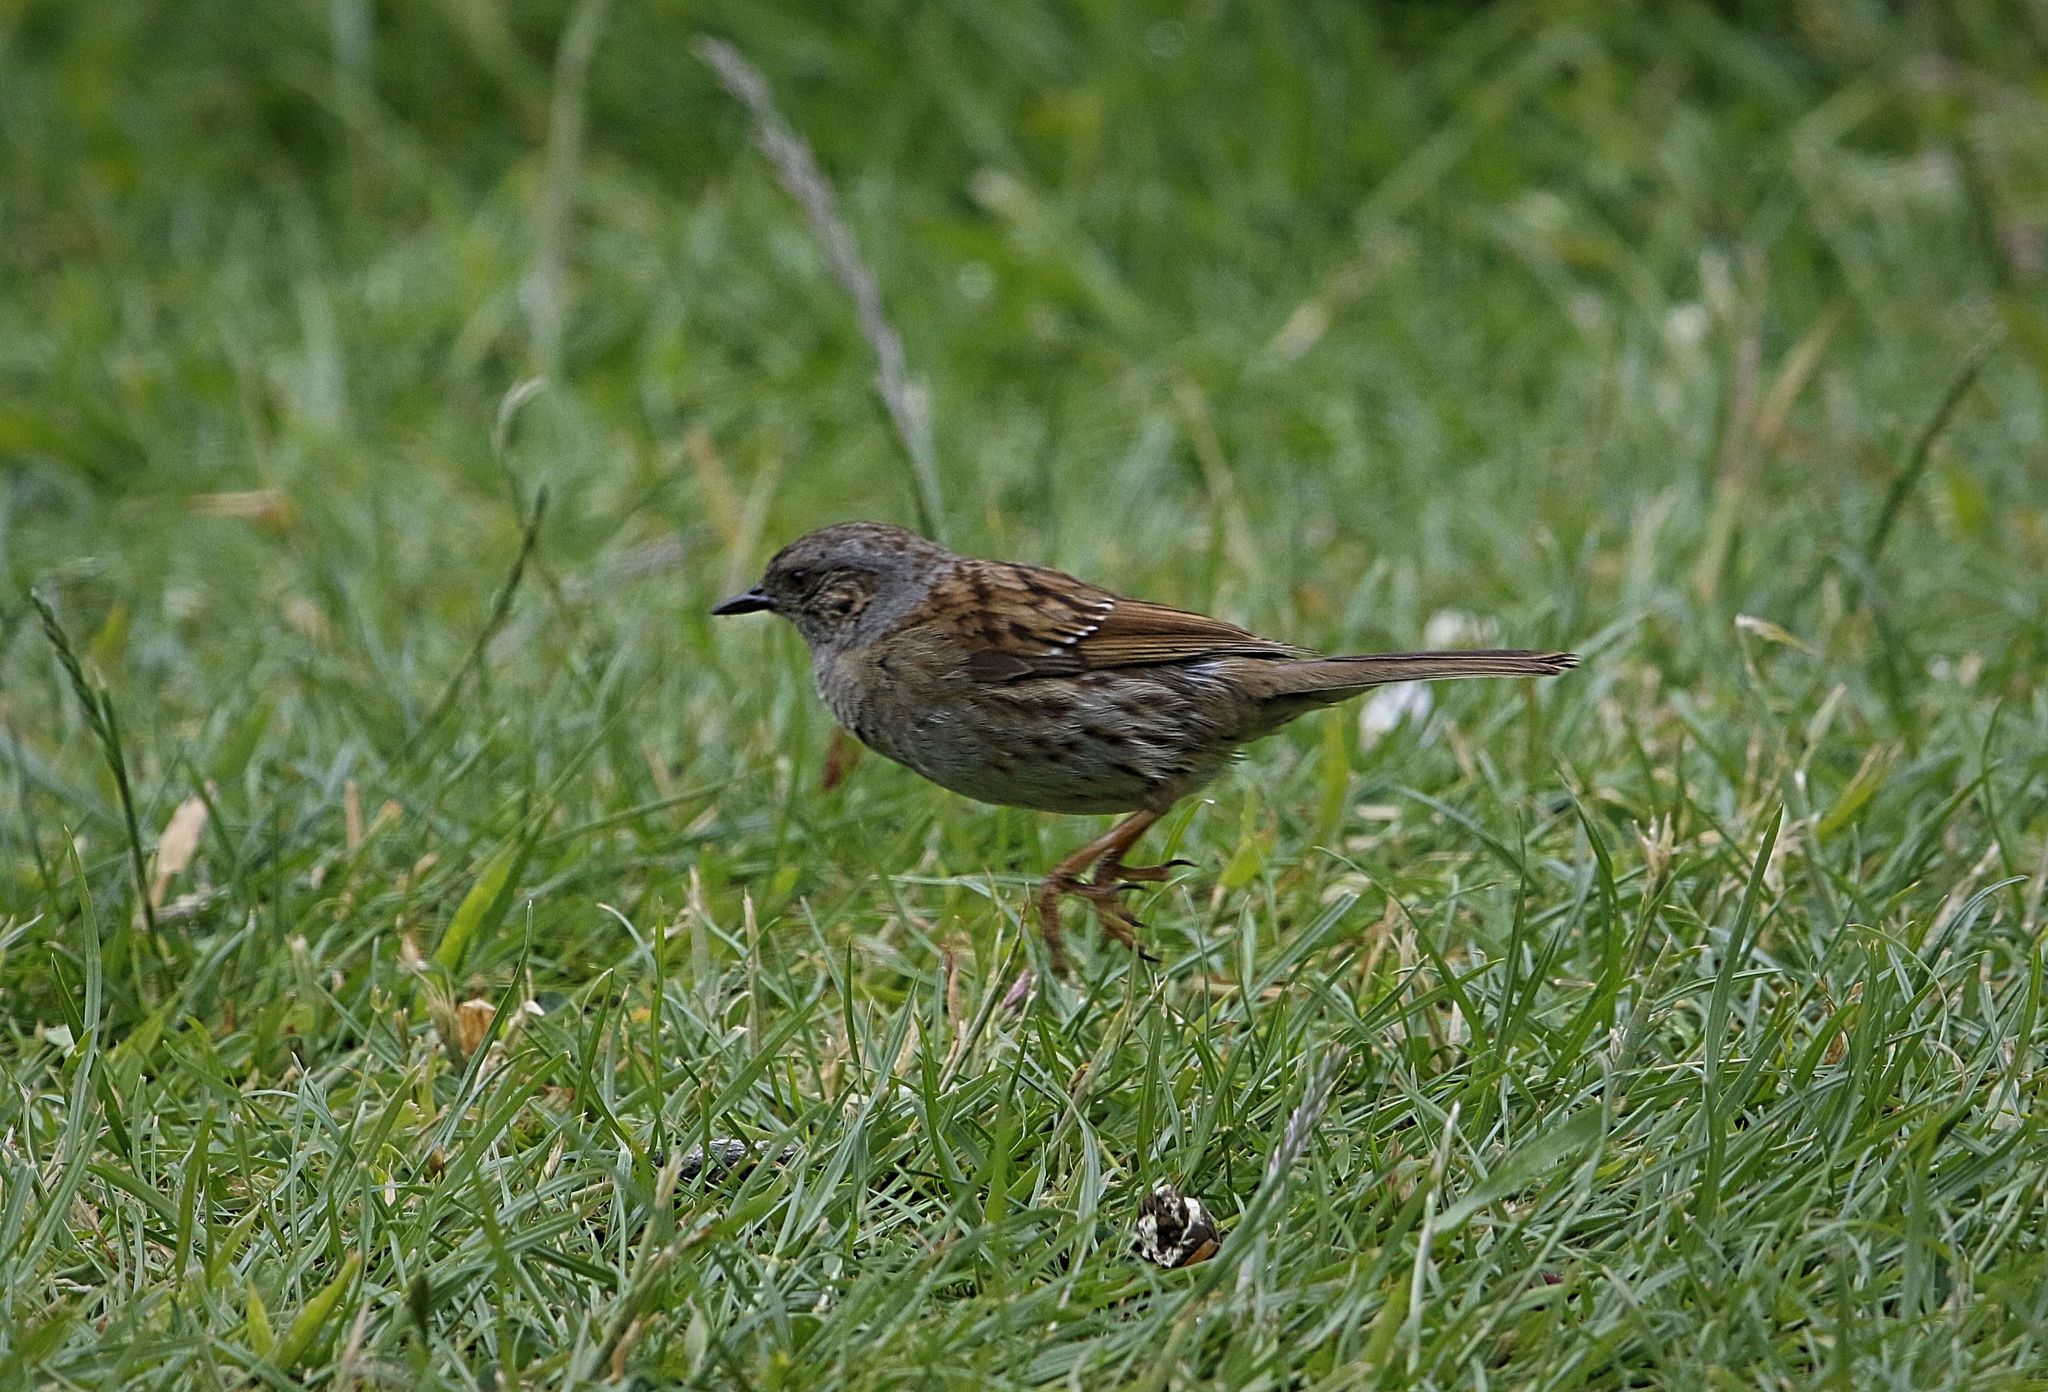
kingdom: Animalia
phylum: Chordata
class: Aves
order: Passeriformes
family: Prunellidae
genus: Prunella
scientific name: Prunella modularis
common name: Dunnock
